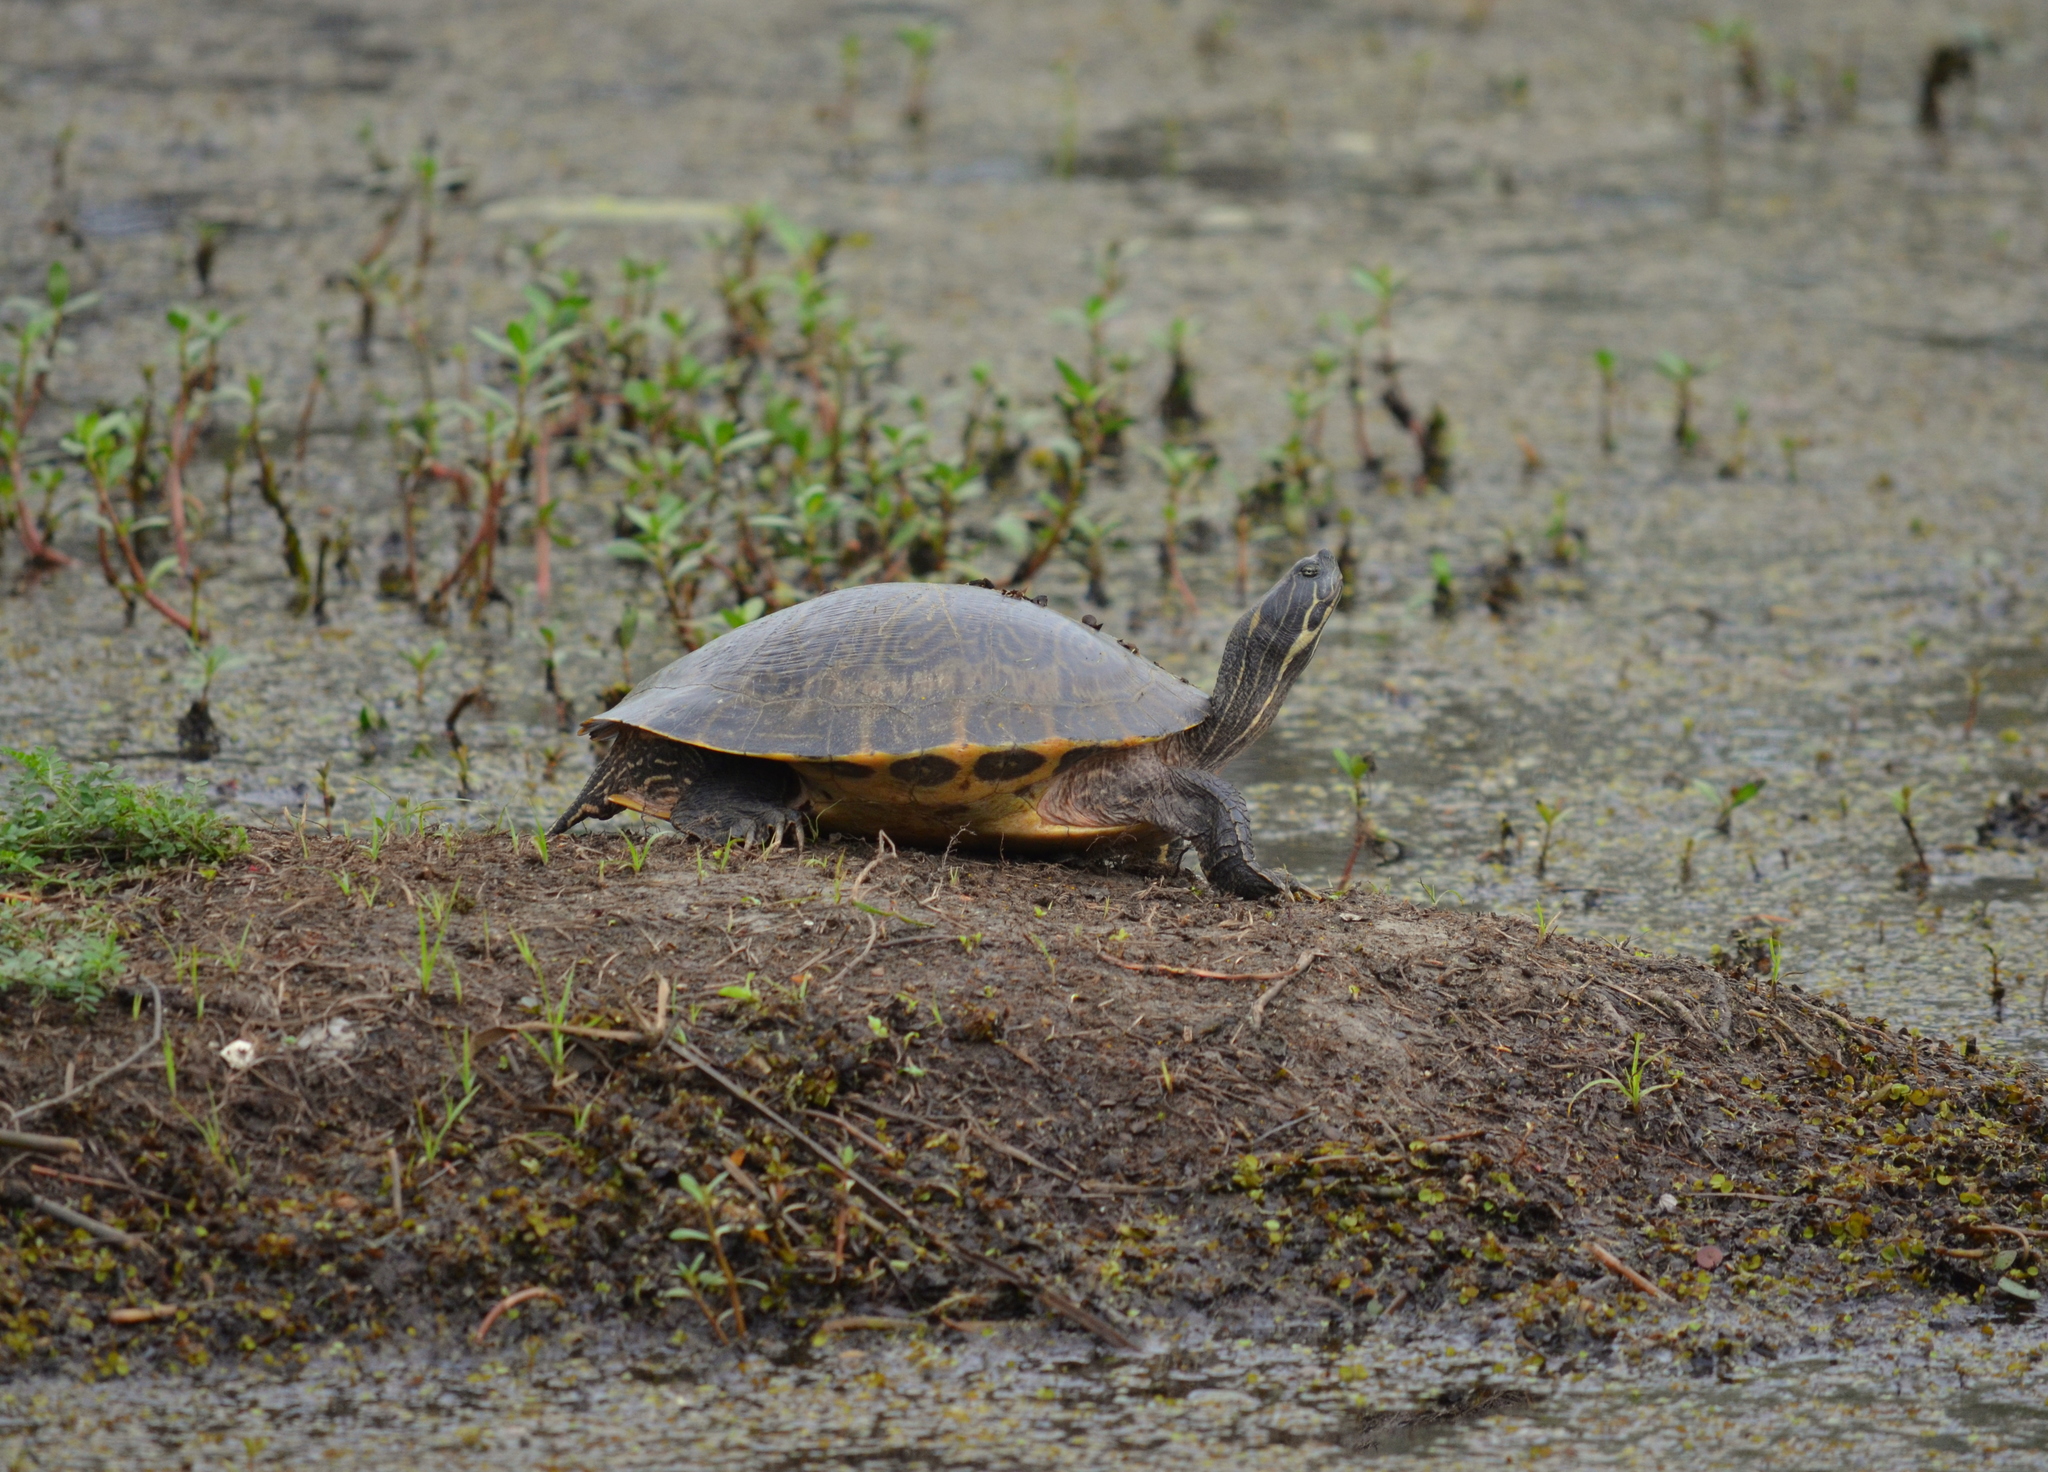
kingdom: Animalia
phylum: Chordata
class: Testudines
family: Emydidae
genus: Pseudemys
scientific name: Pseudemys concinna
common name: Eastern river cooter
